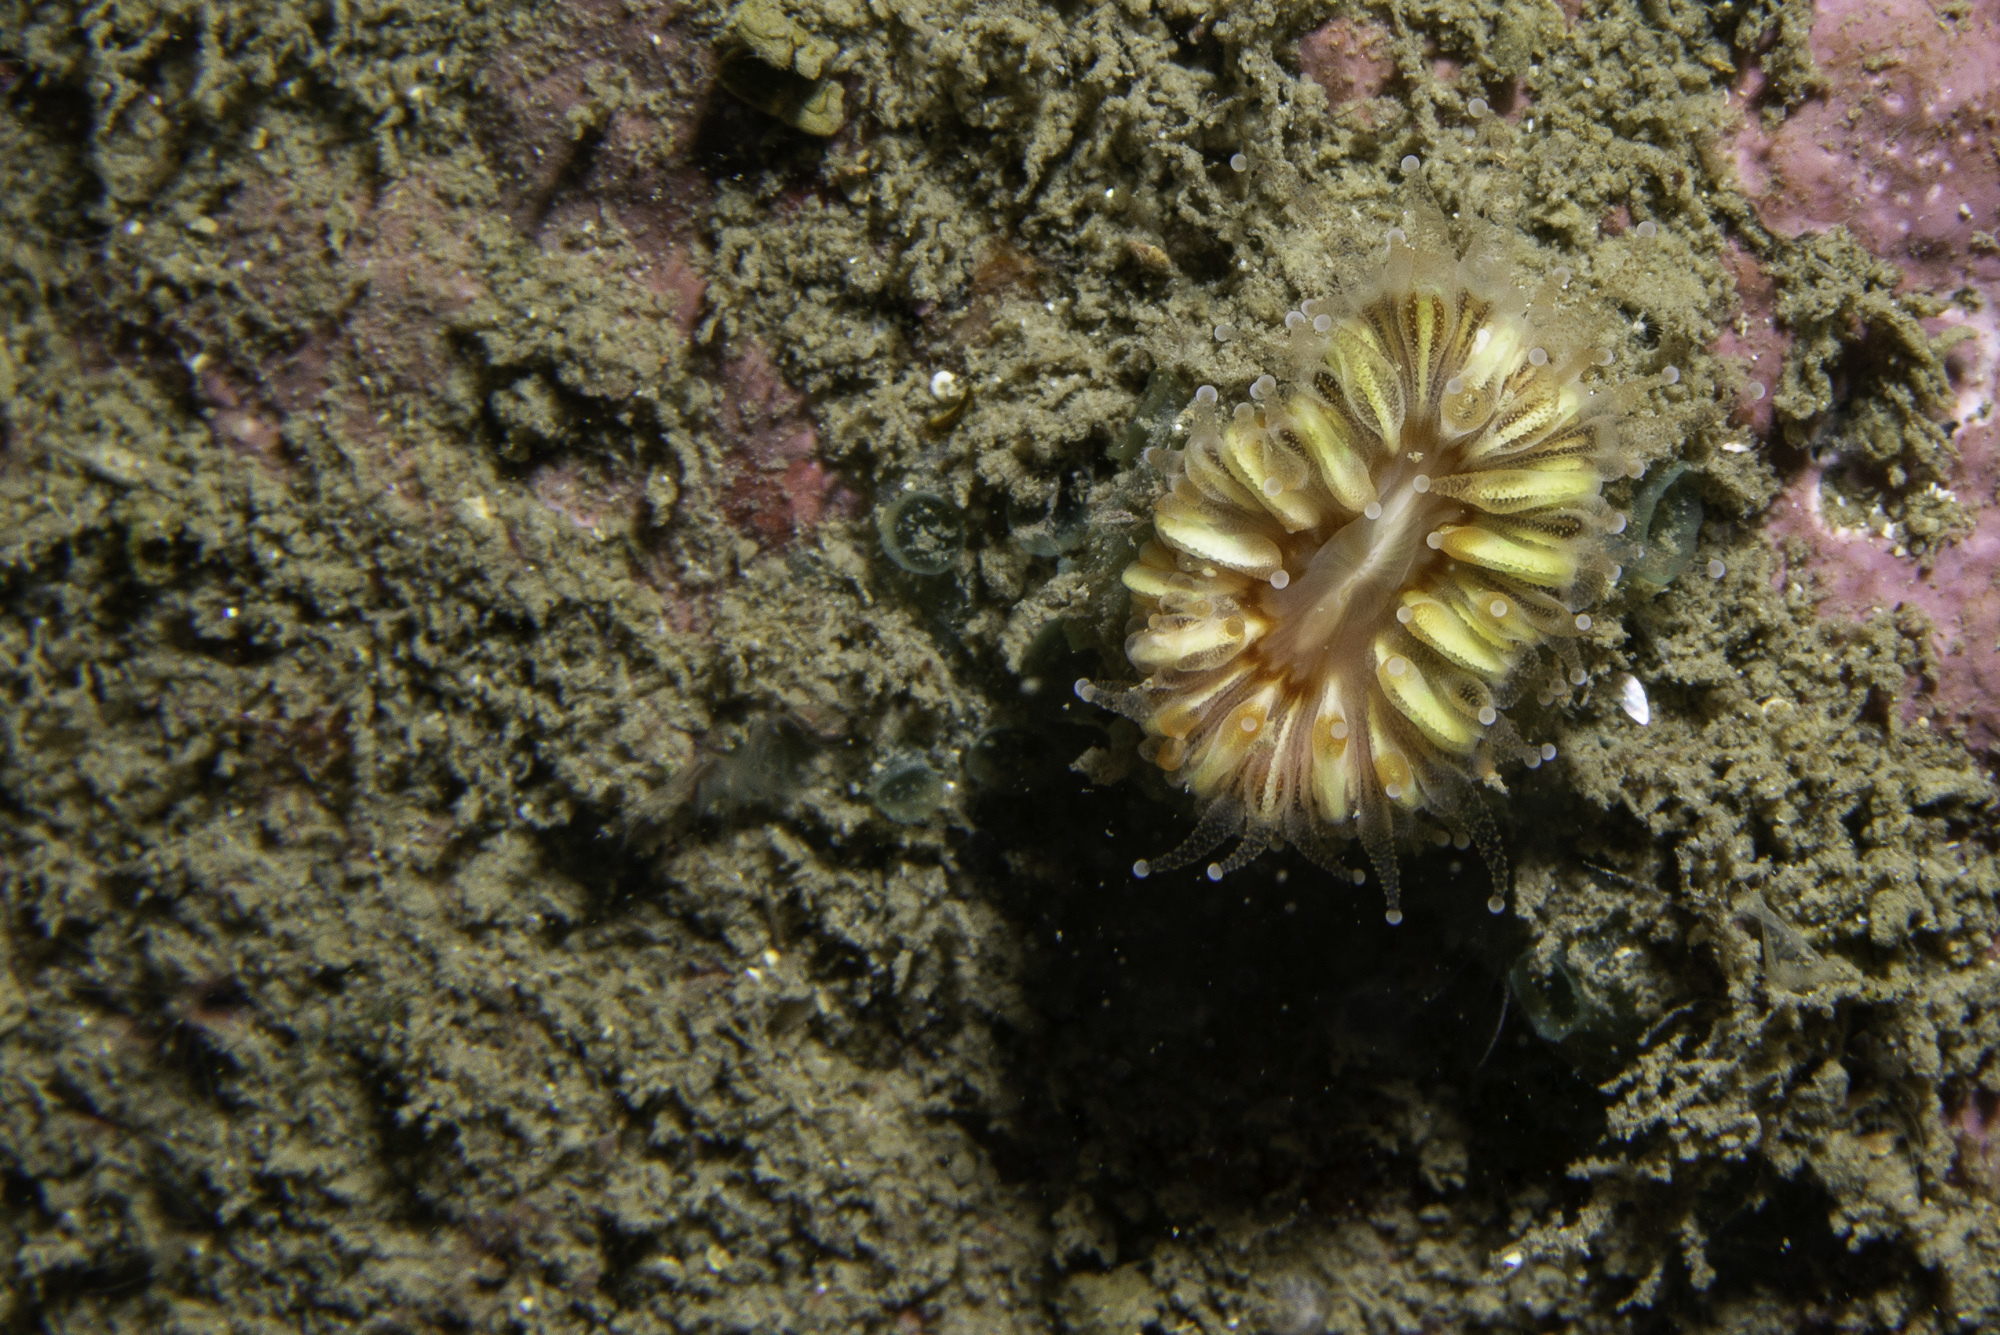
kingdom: Animalia
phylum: Porifera
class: Demospongiae
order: Poecilosclerida
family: Hymedesmiidae
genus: Hymedesmia
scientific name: Hymedesmia paupertas
